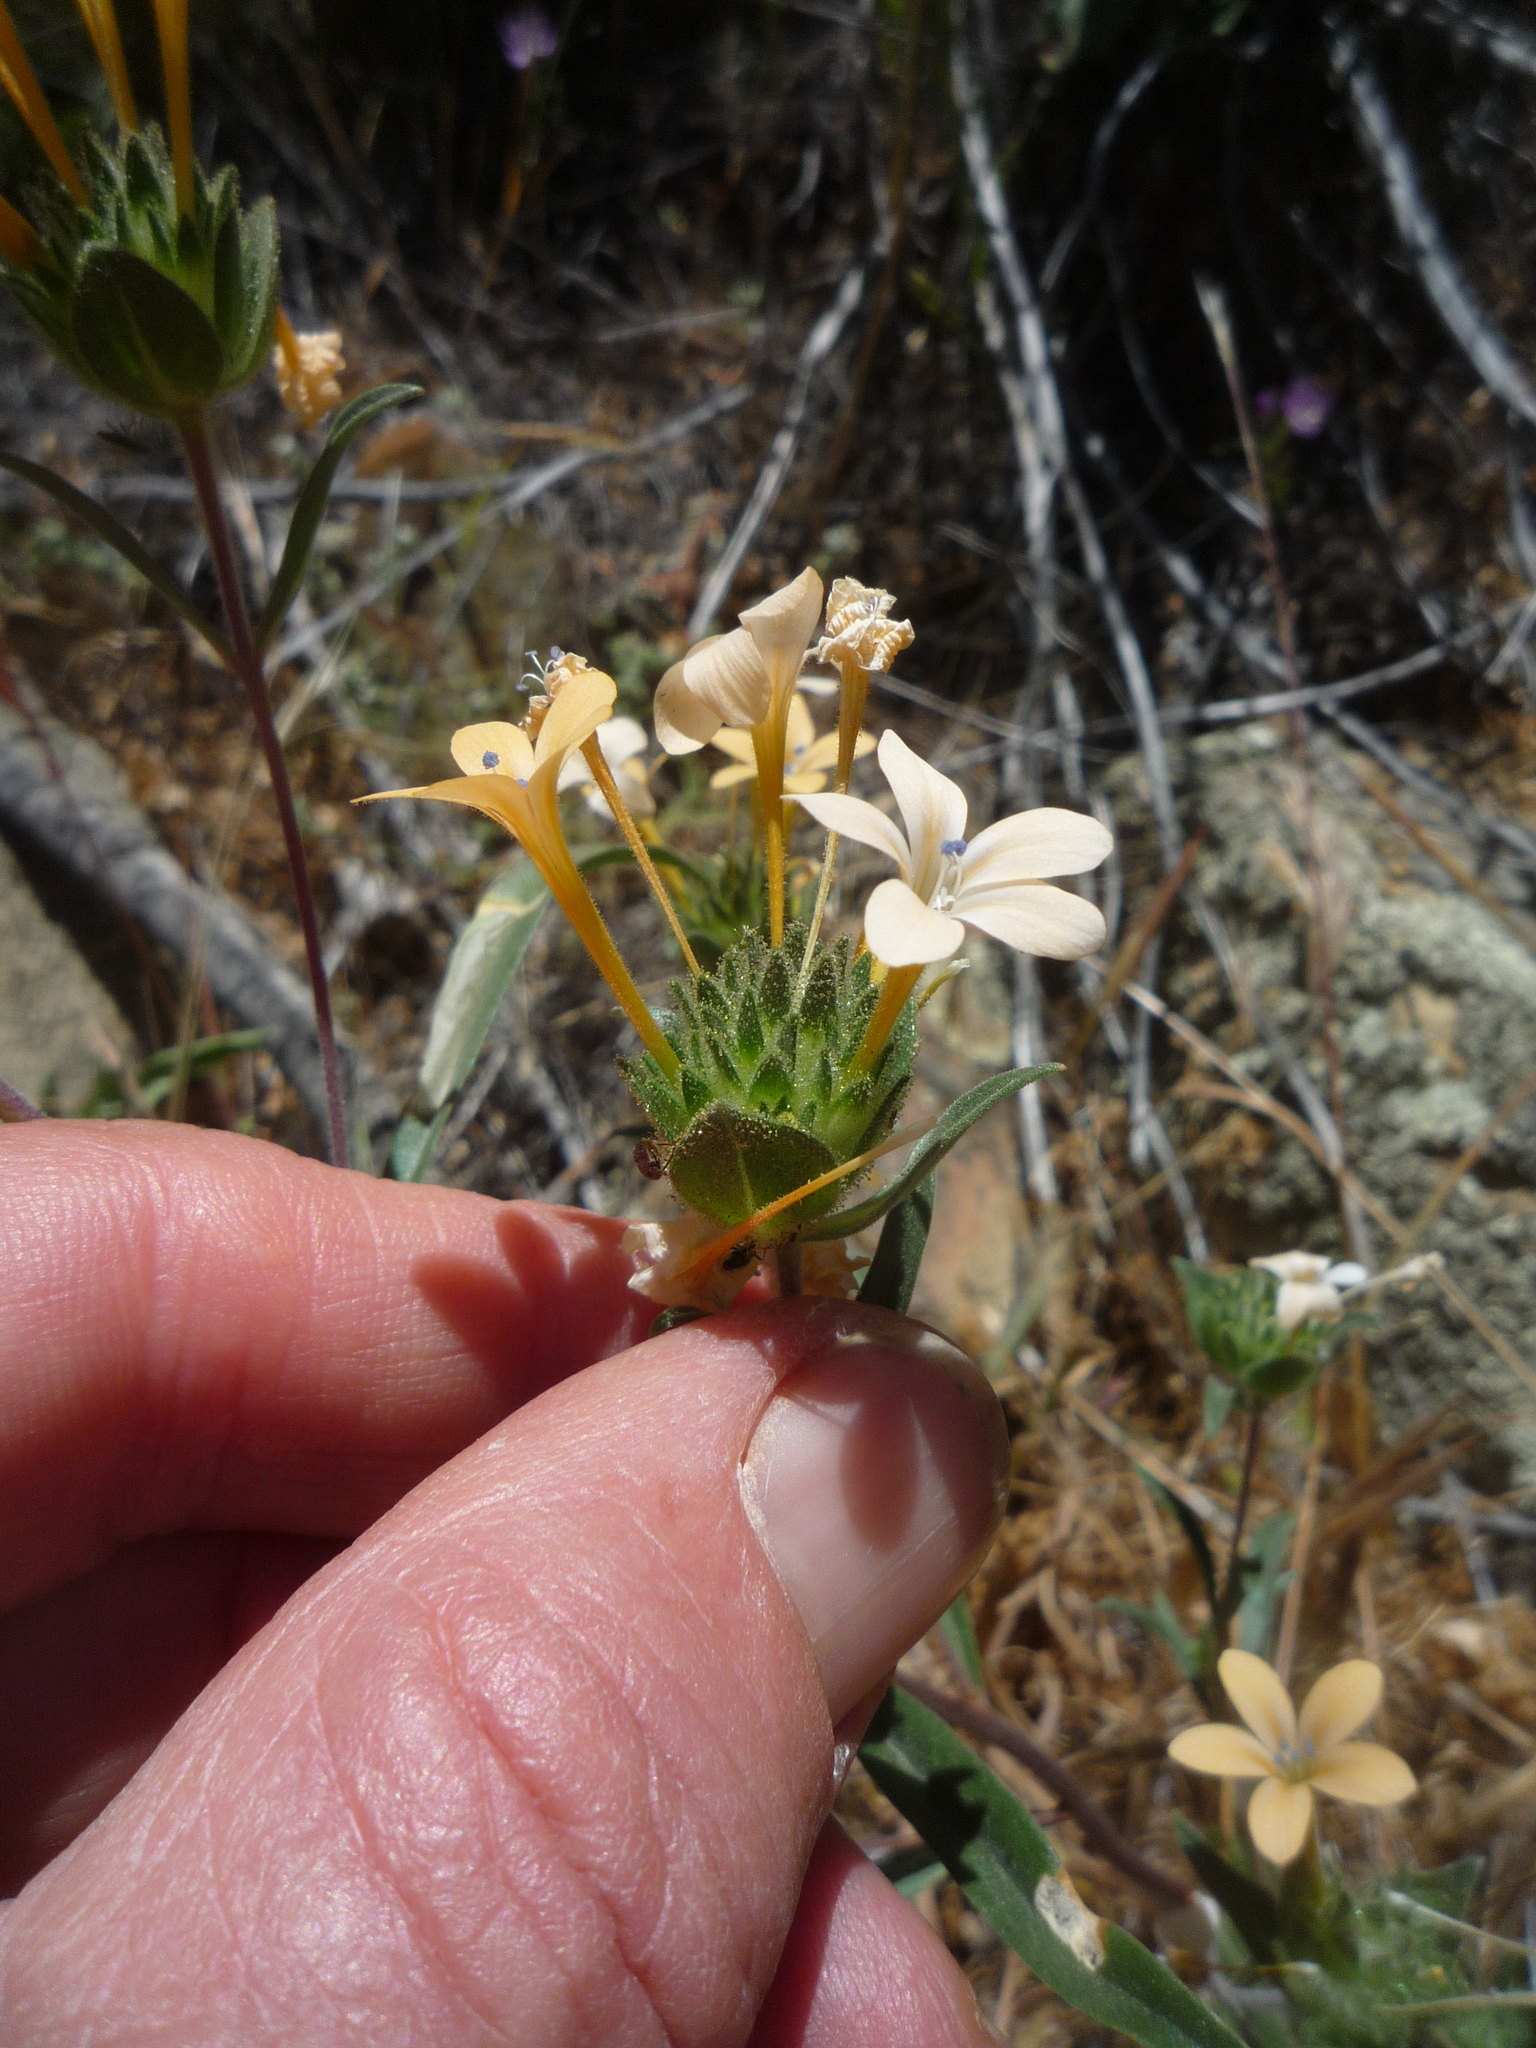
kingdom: Plantae
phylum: Tracheophyta
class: Magnoliopsida
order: Ericales
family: Polemoniaceae
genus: Collomia
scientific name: Collomia grandiflora
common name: California strawflower
